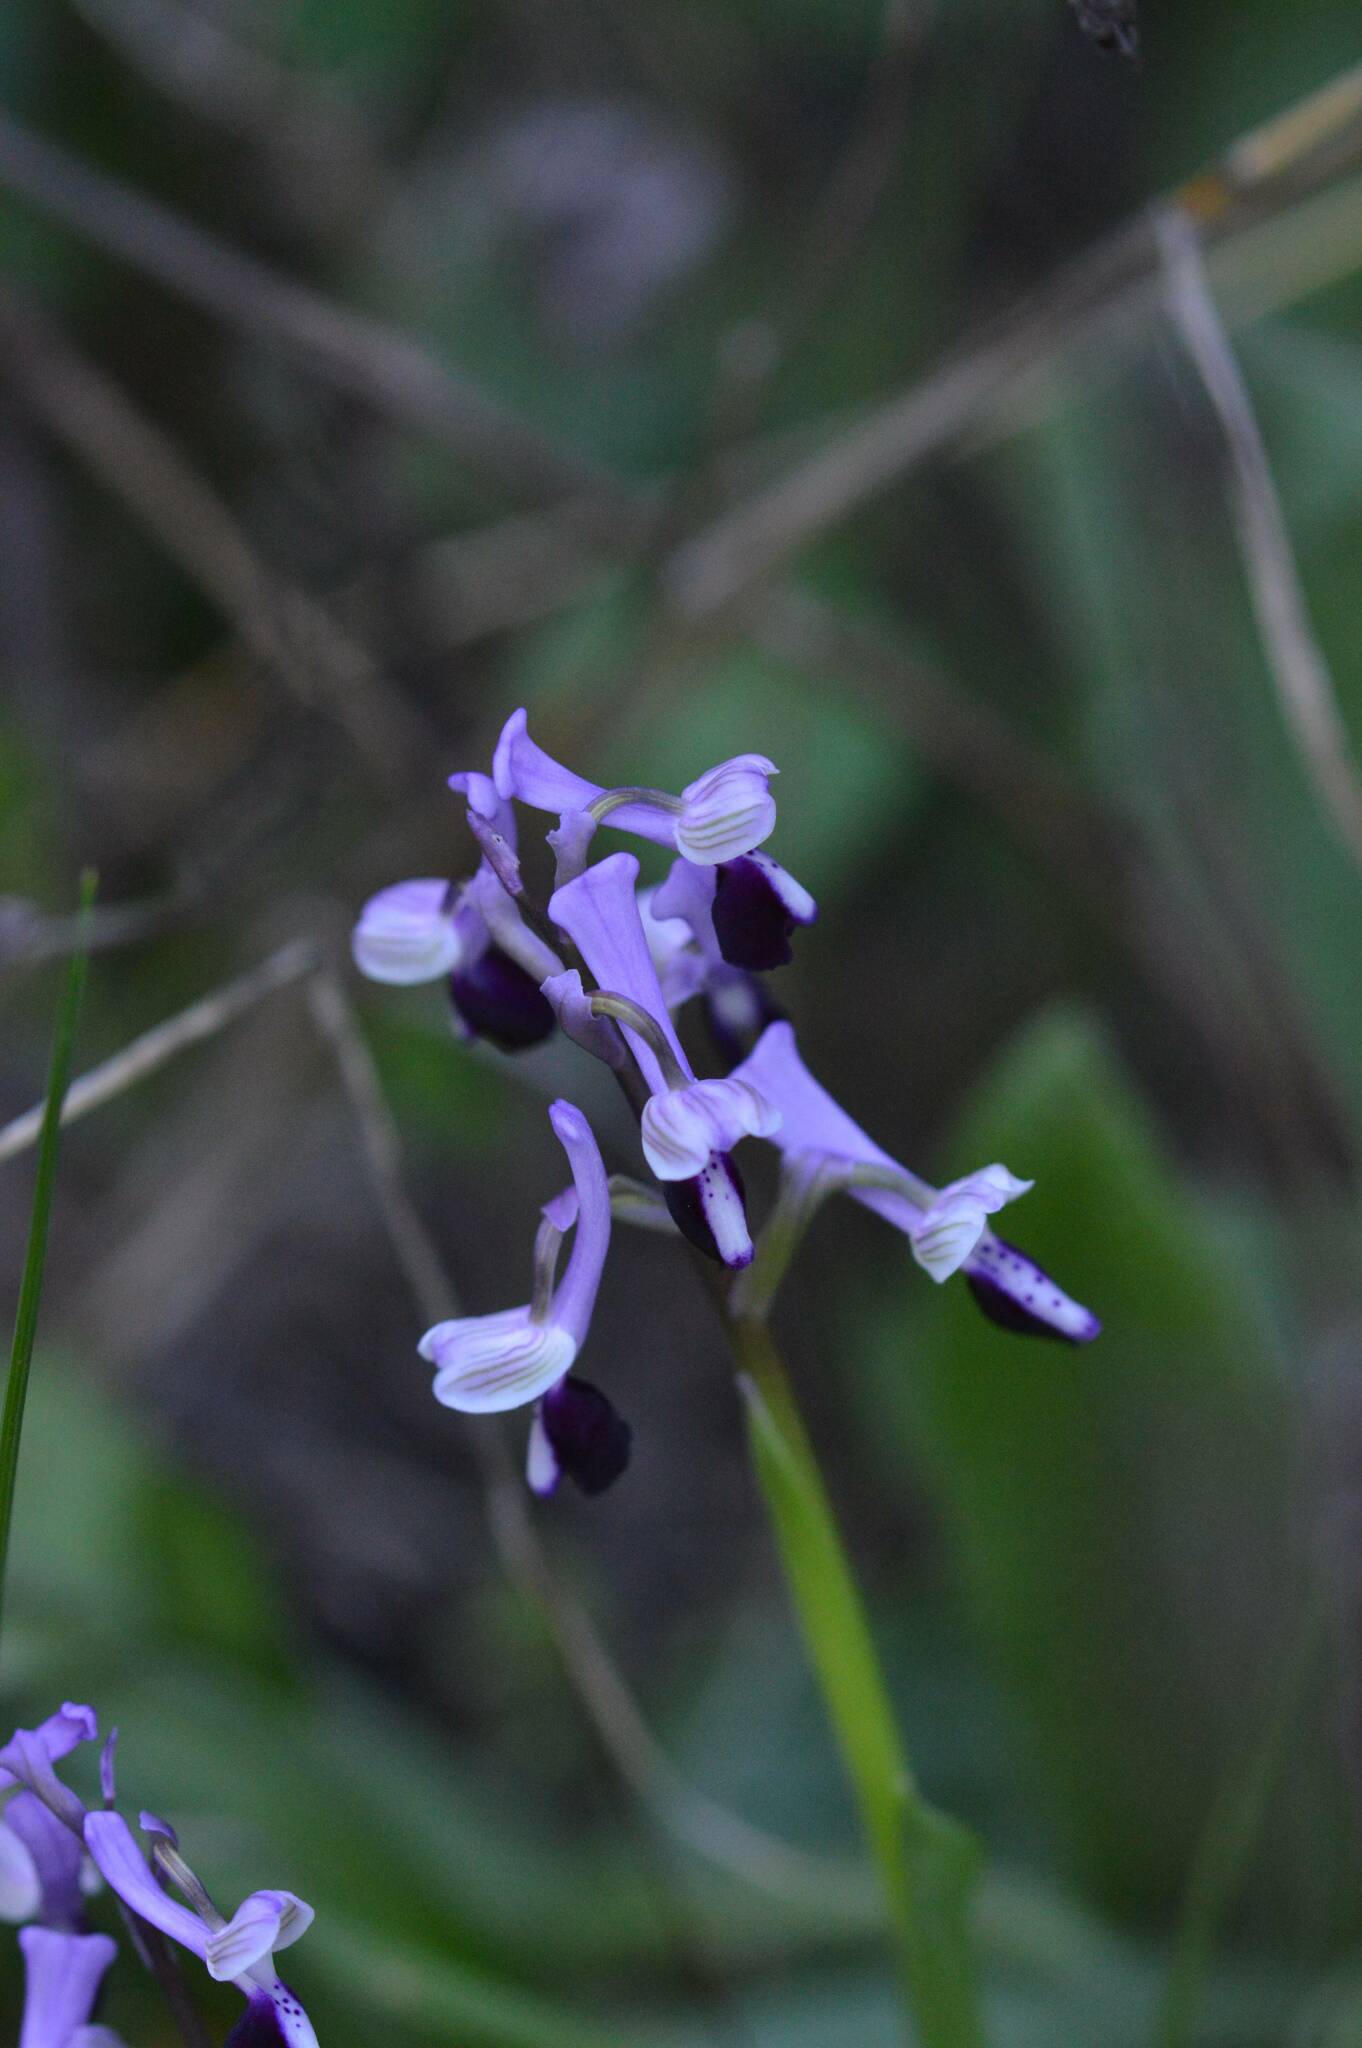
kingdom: Plantae
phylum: Tracheophyta
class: Liliopsida
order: Asparagales
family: Orchidaceae
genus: Anacamptis
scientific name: Anacamptis morio
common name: Green-winged orchid
